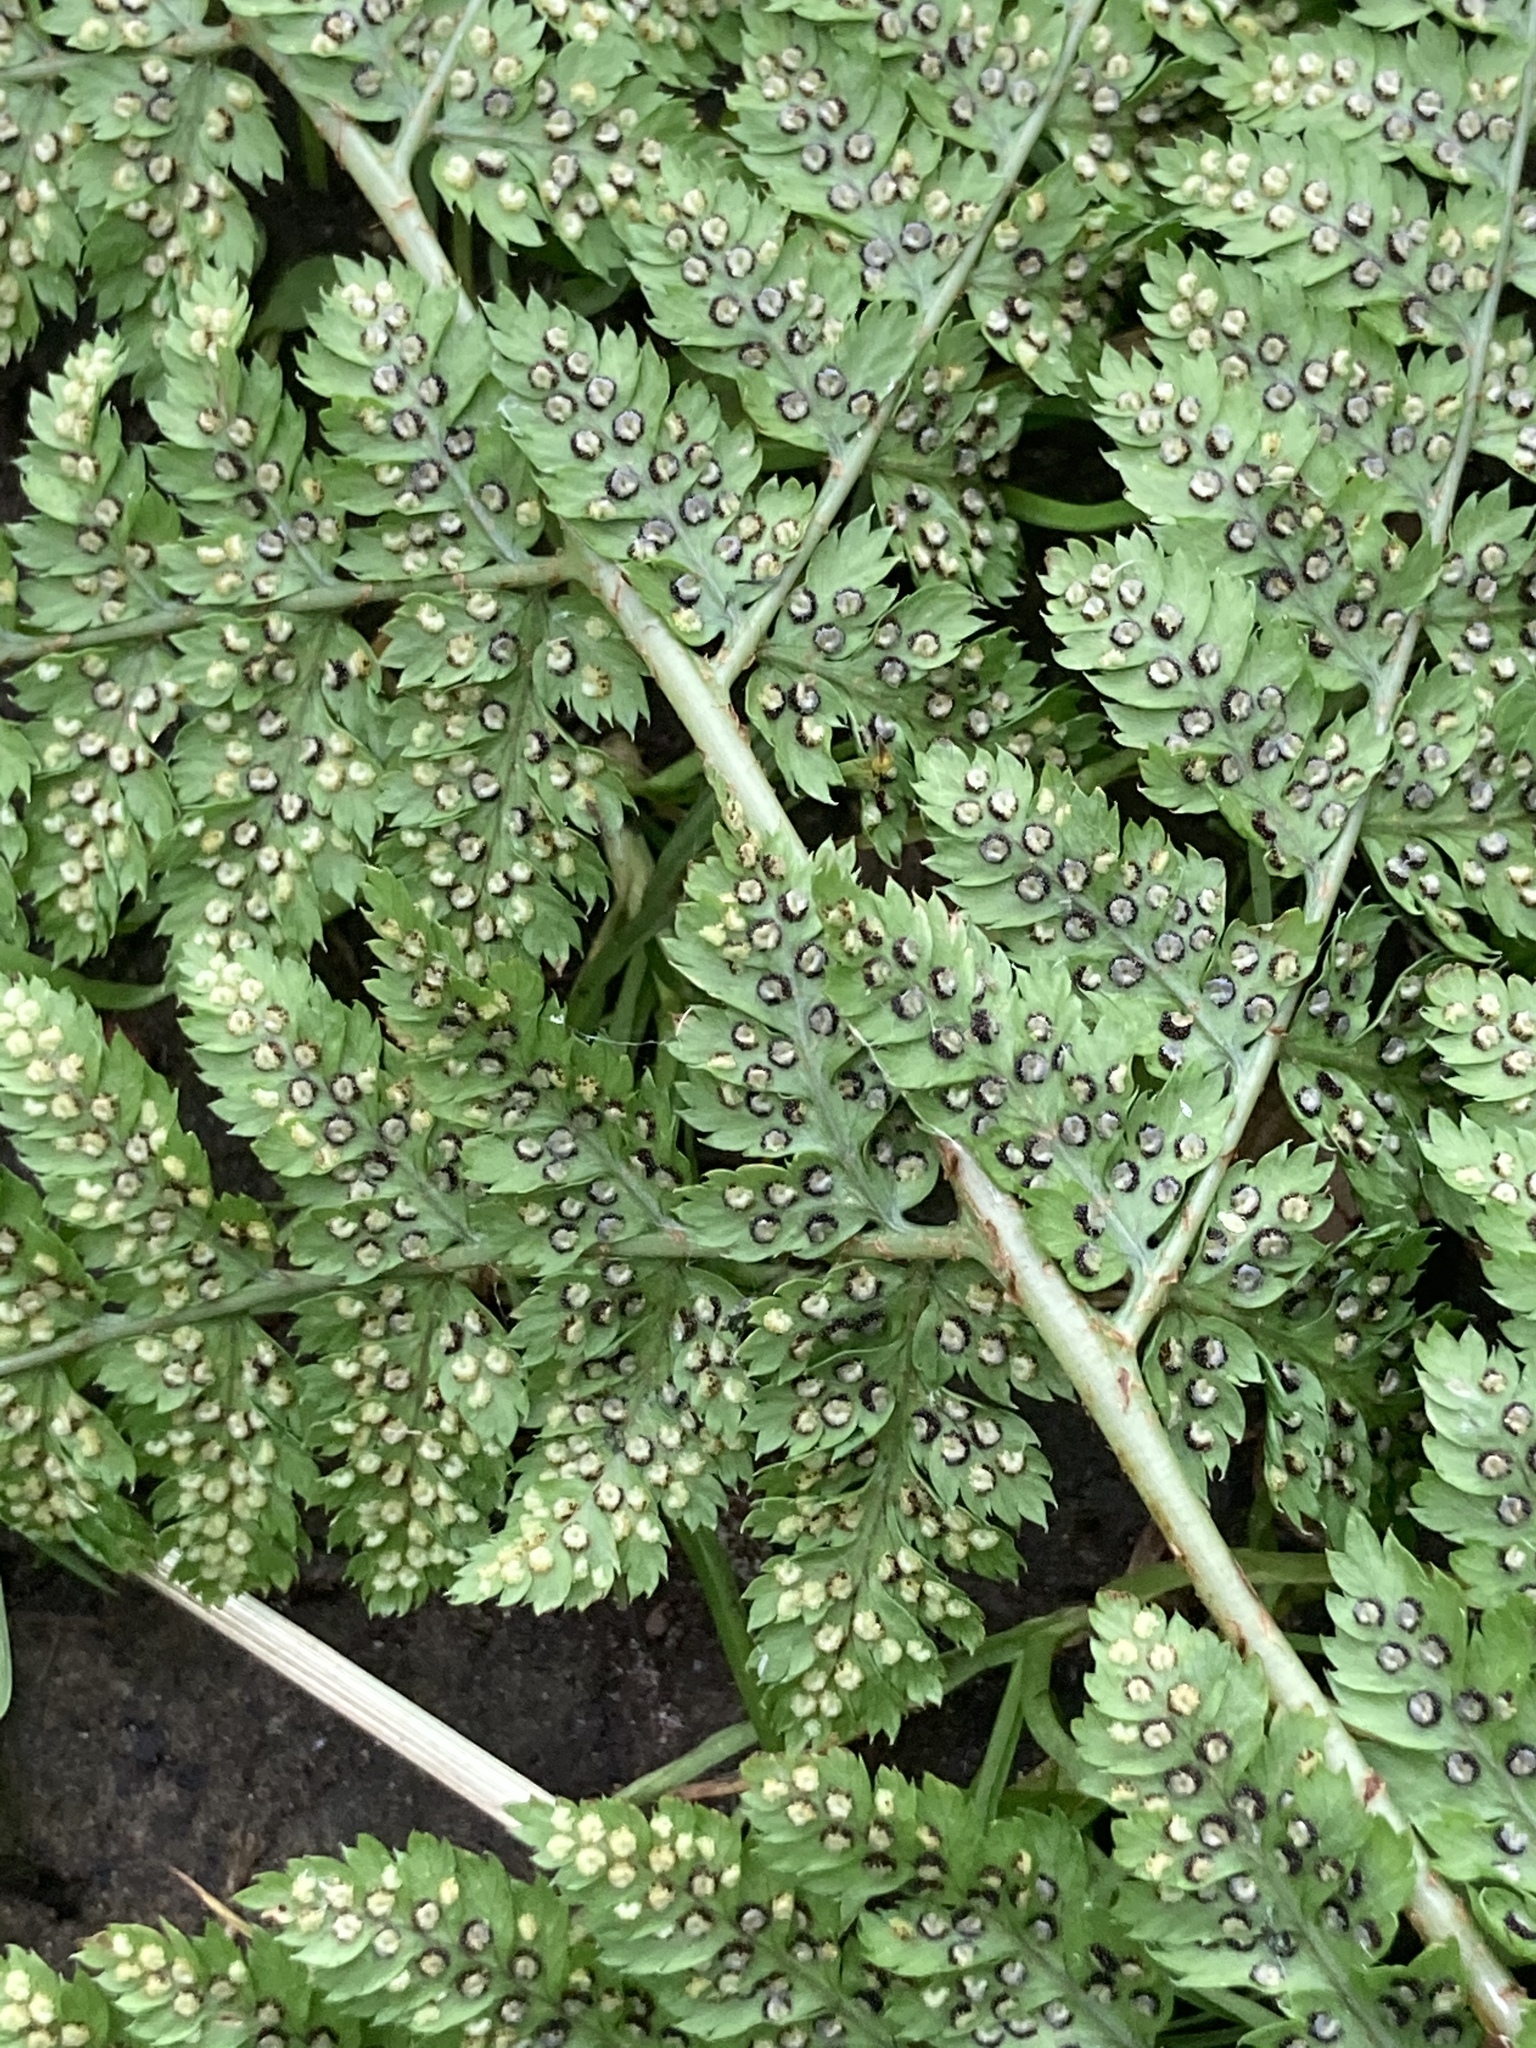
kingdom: Plantae
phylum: Tracheophyta
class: Polypodiopsida
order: Polypodiales
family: Dryopteridaceae
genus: Dryopteris
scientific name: Dryopteris dilatata
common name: Broad buckler-fern
